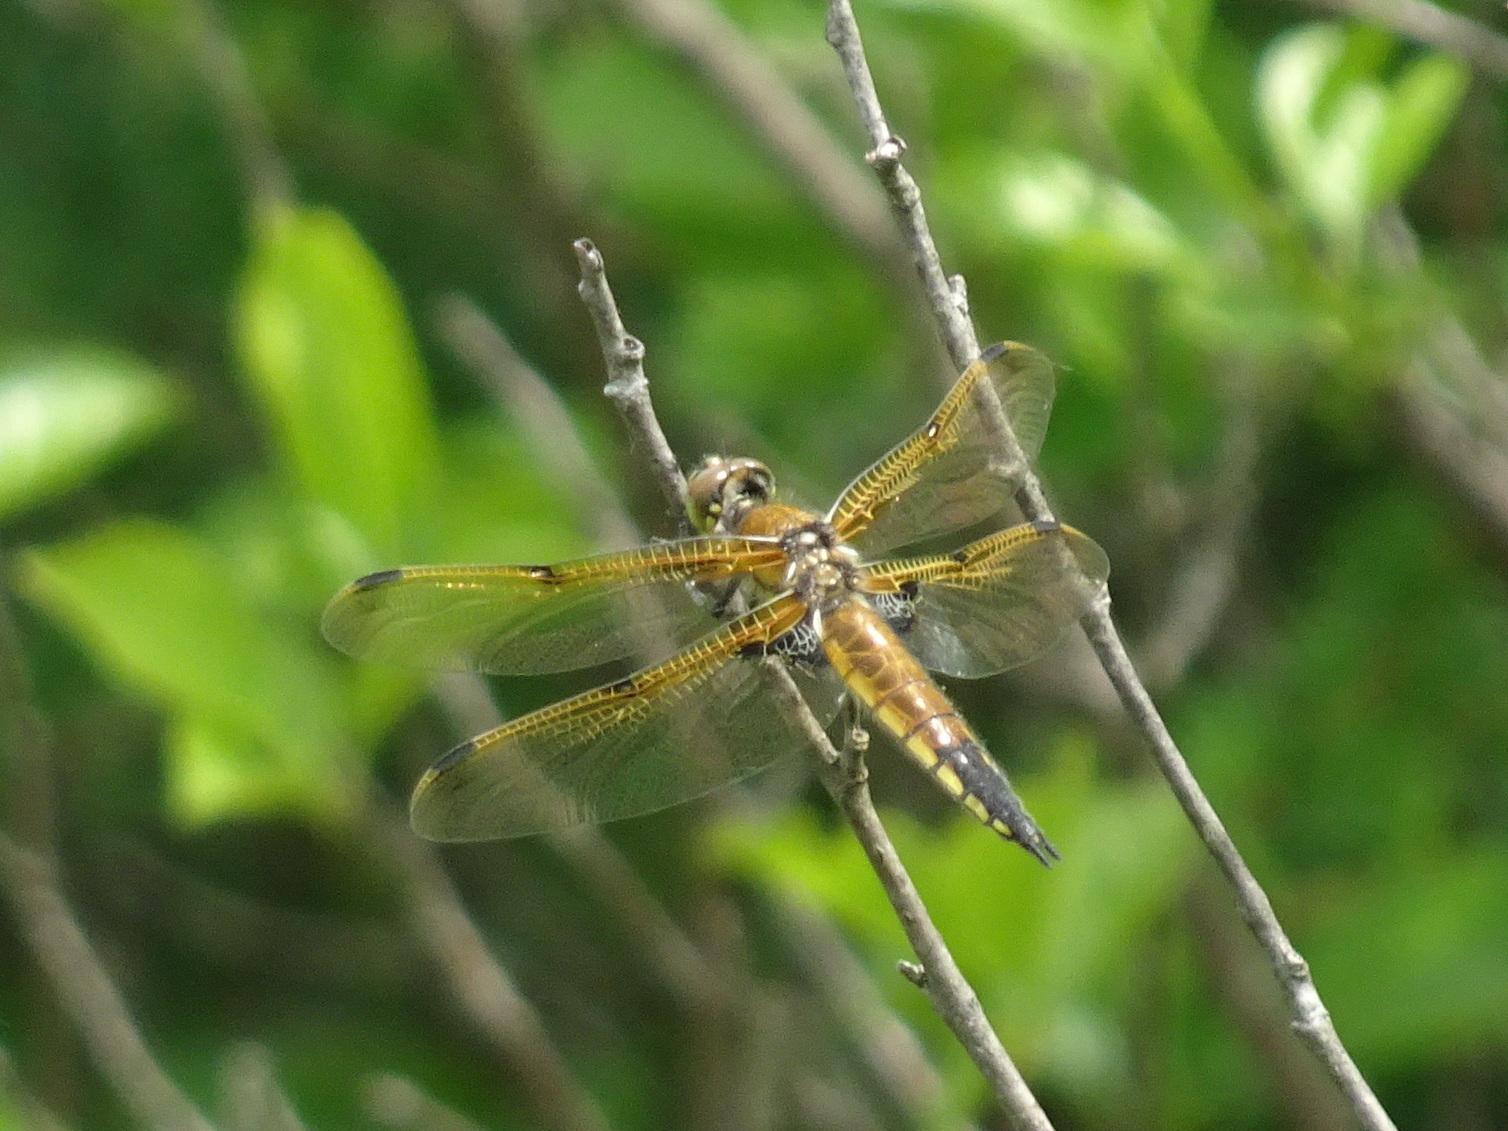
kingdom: Animalia
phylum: Arthropoda
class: Insecta
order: Odonata
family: Libellulidae
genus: Libellula
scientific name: Libellula quadrimaculata
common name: Four-spotted chaser
